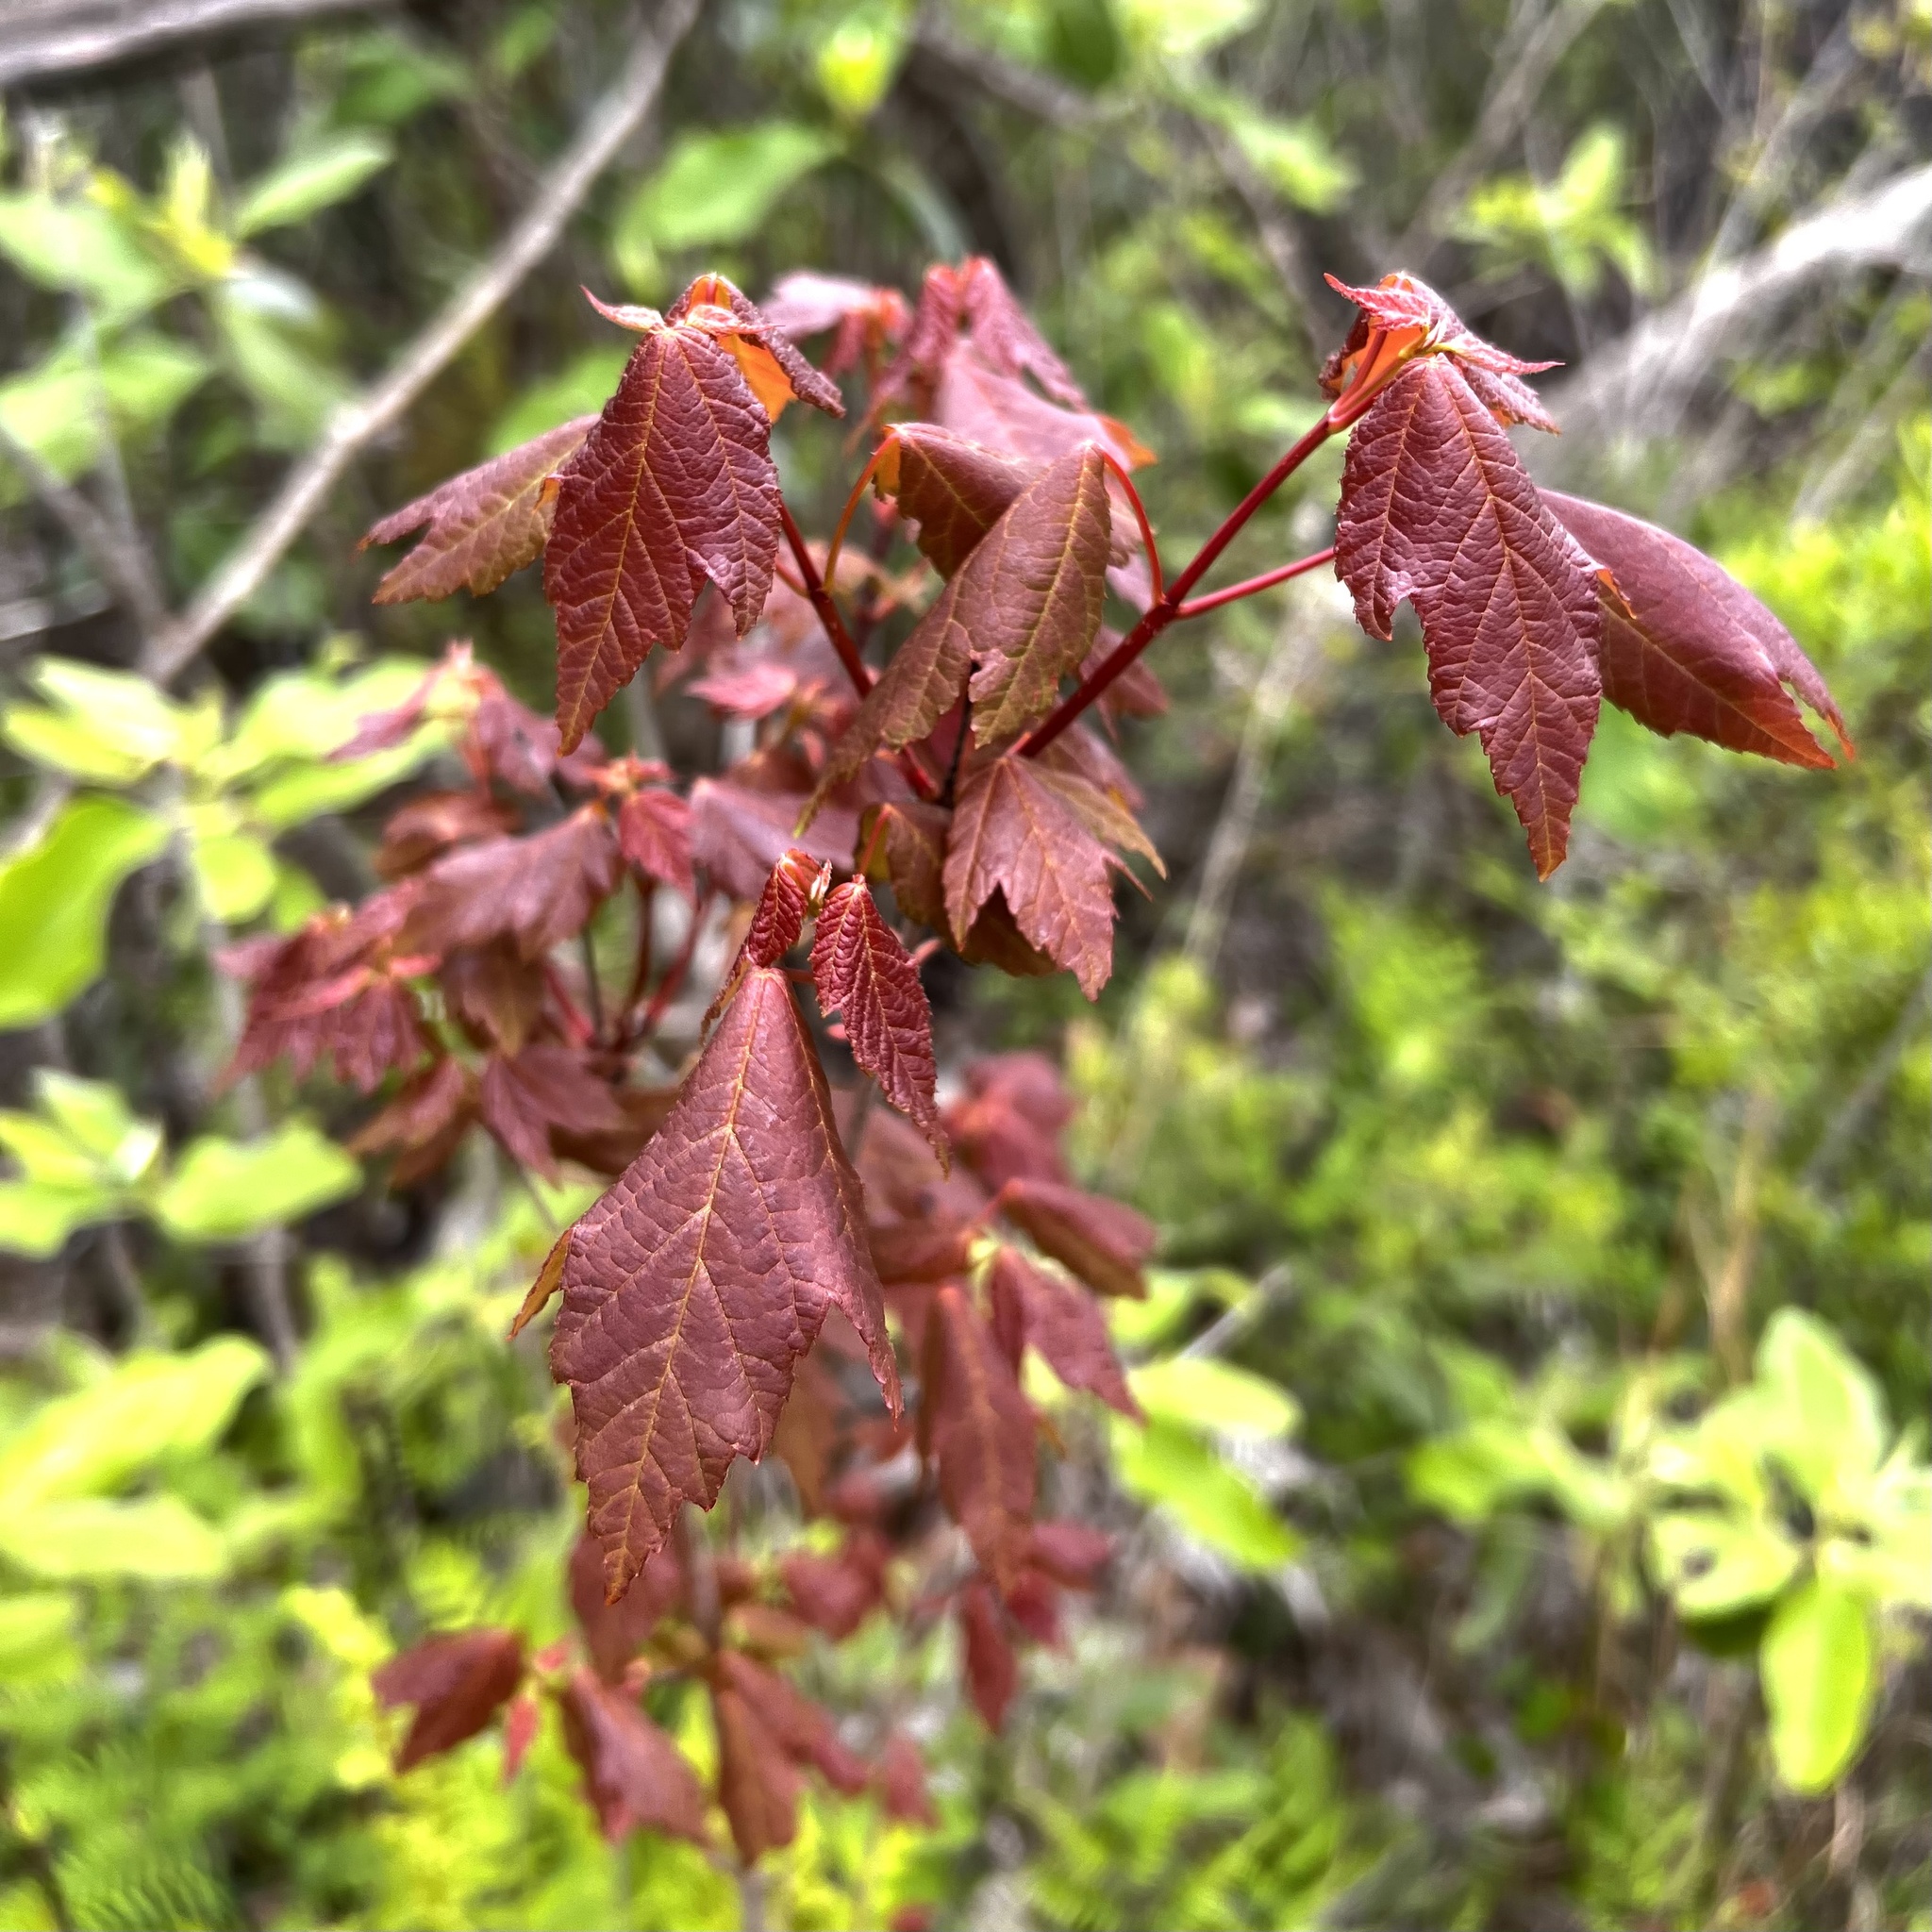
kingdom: Plantae
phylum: Tracheophyta
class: Magnoliopsida
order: Sapindales
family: Sapindaceae
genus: Acer
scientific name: Acer rubrum
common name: Red maple
